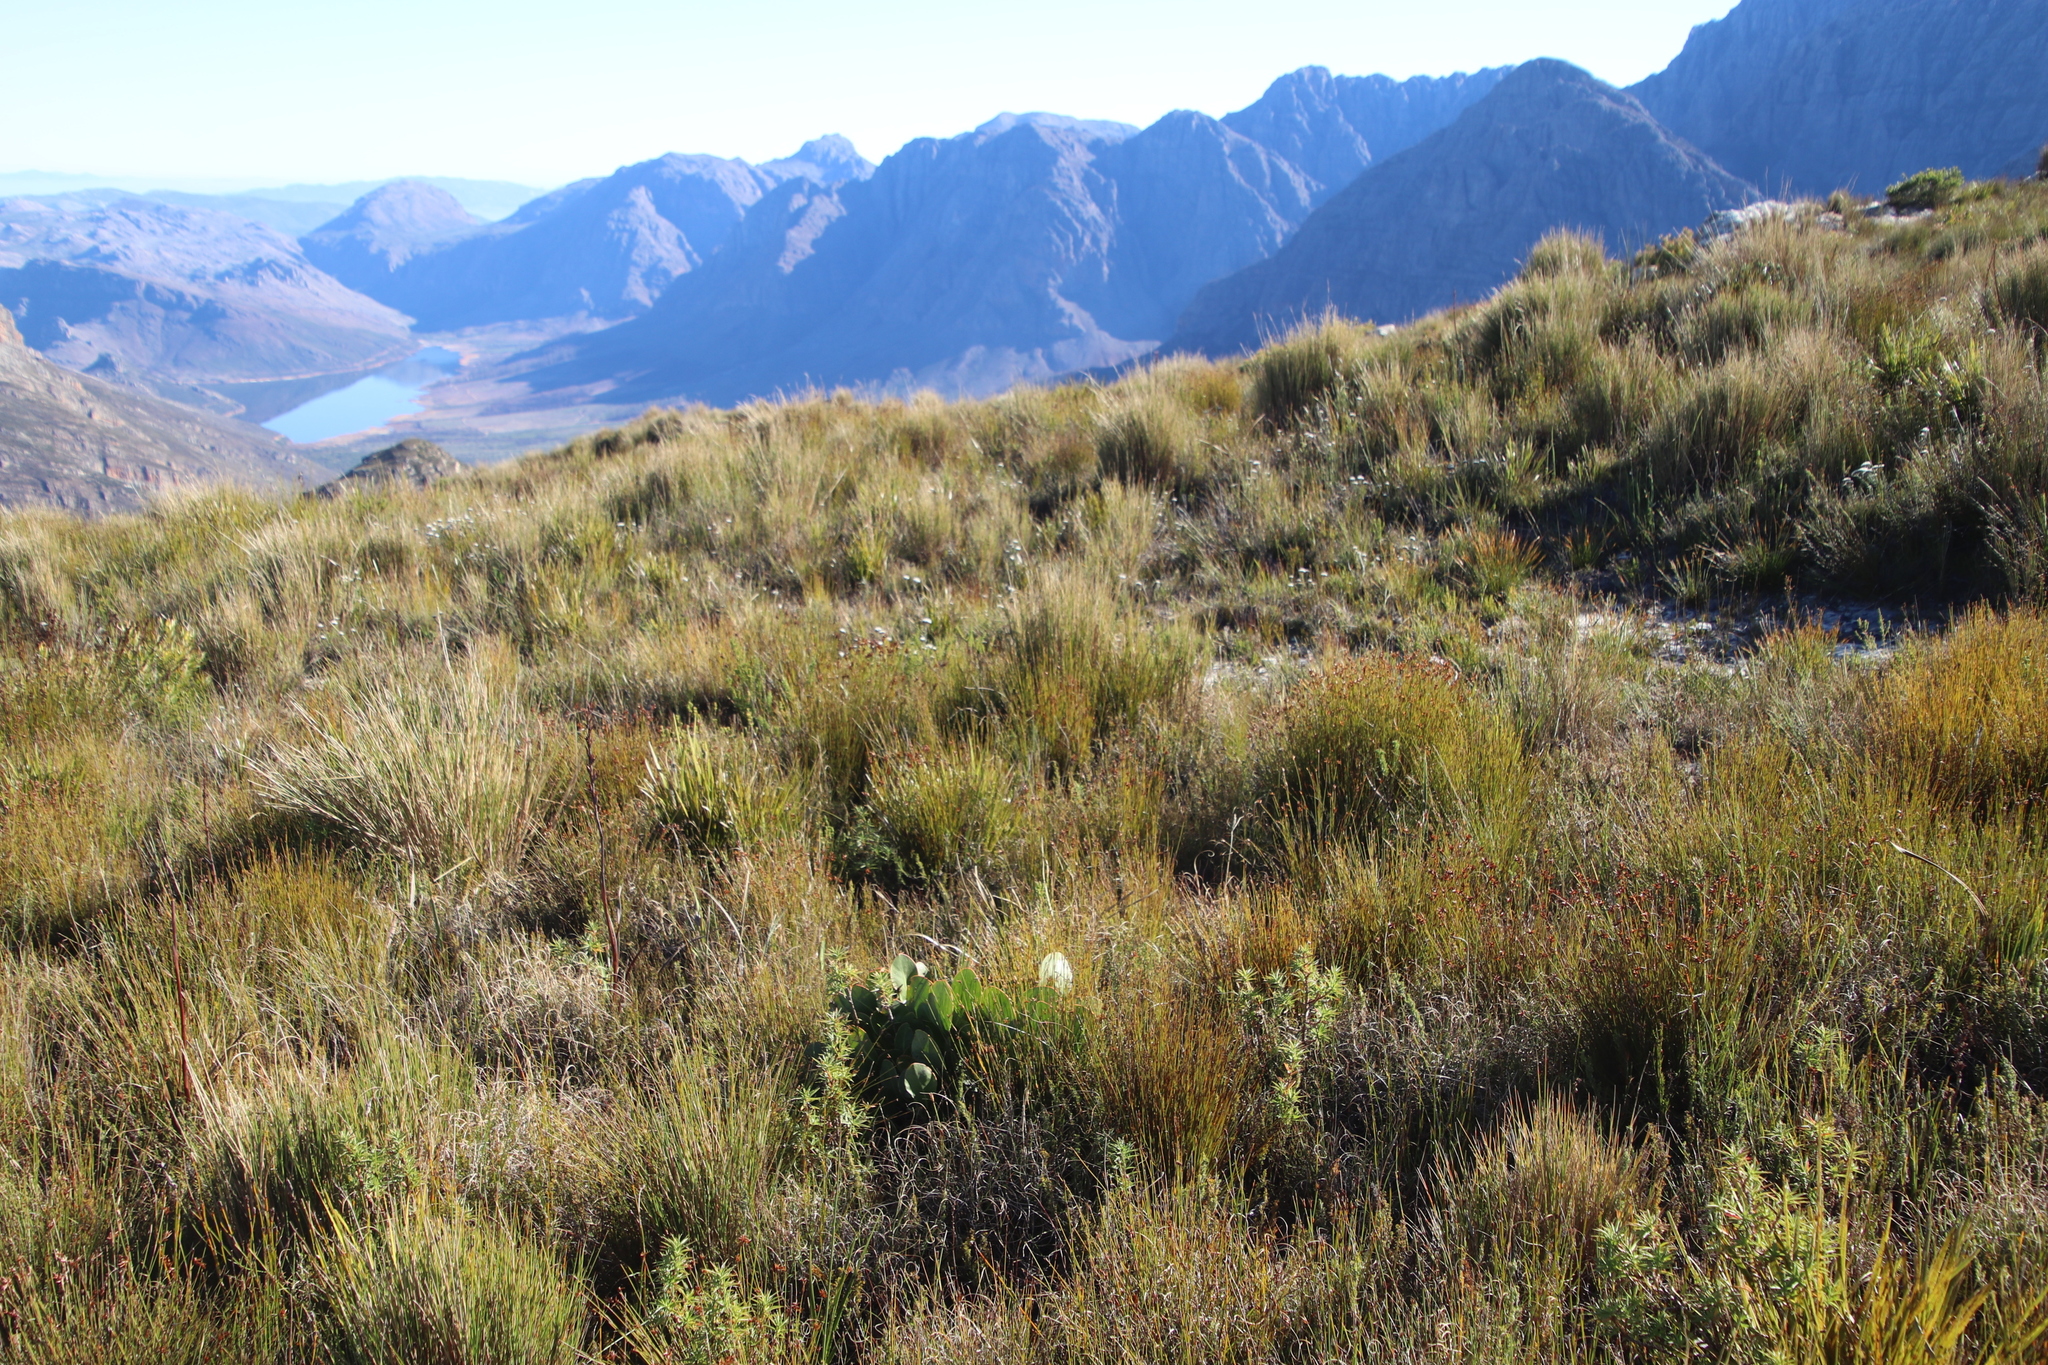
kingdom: Plantae
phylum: Tracheophyta
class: Magnoliopsida
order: Proteales
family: Proteaceae
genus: Protea
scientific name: Protea cynaroides
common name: King protea
